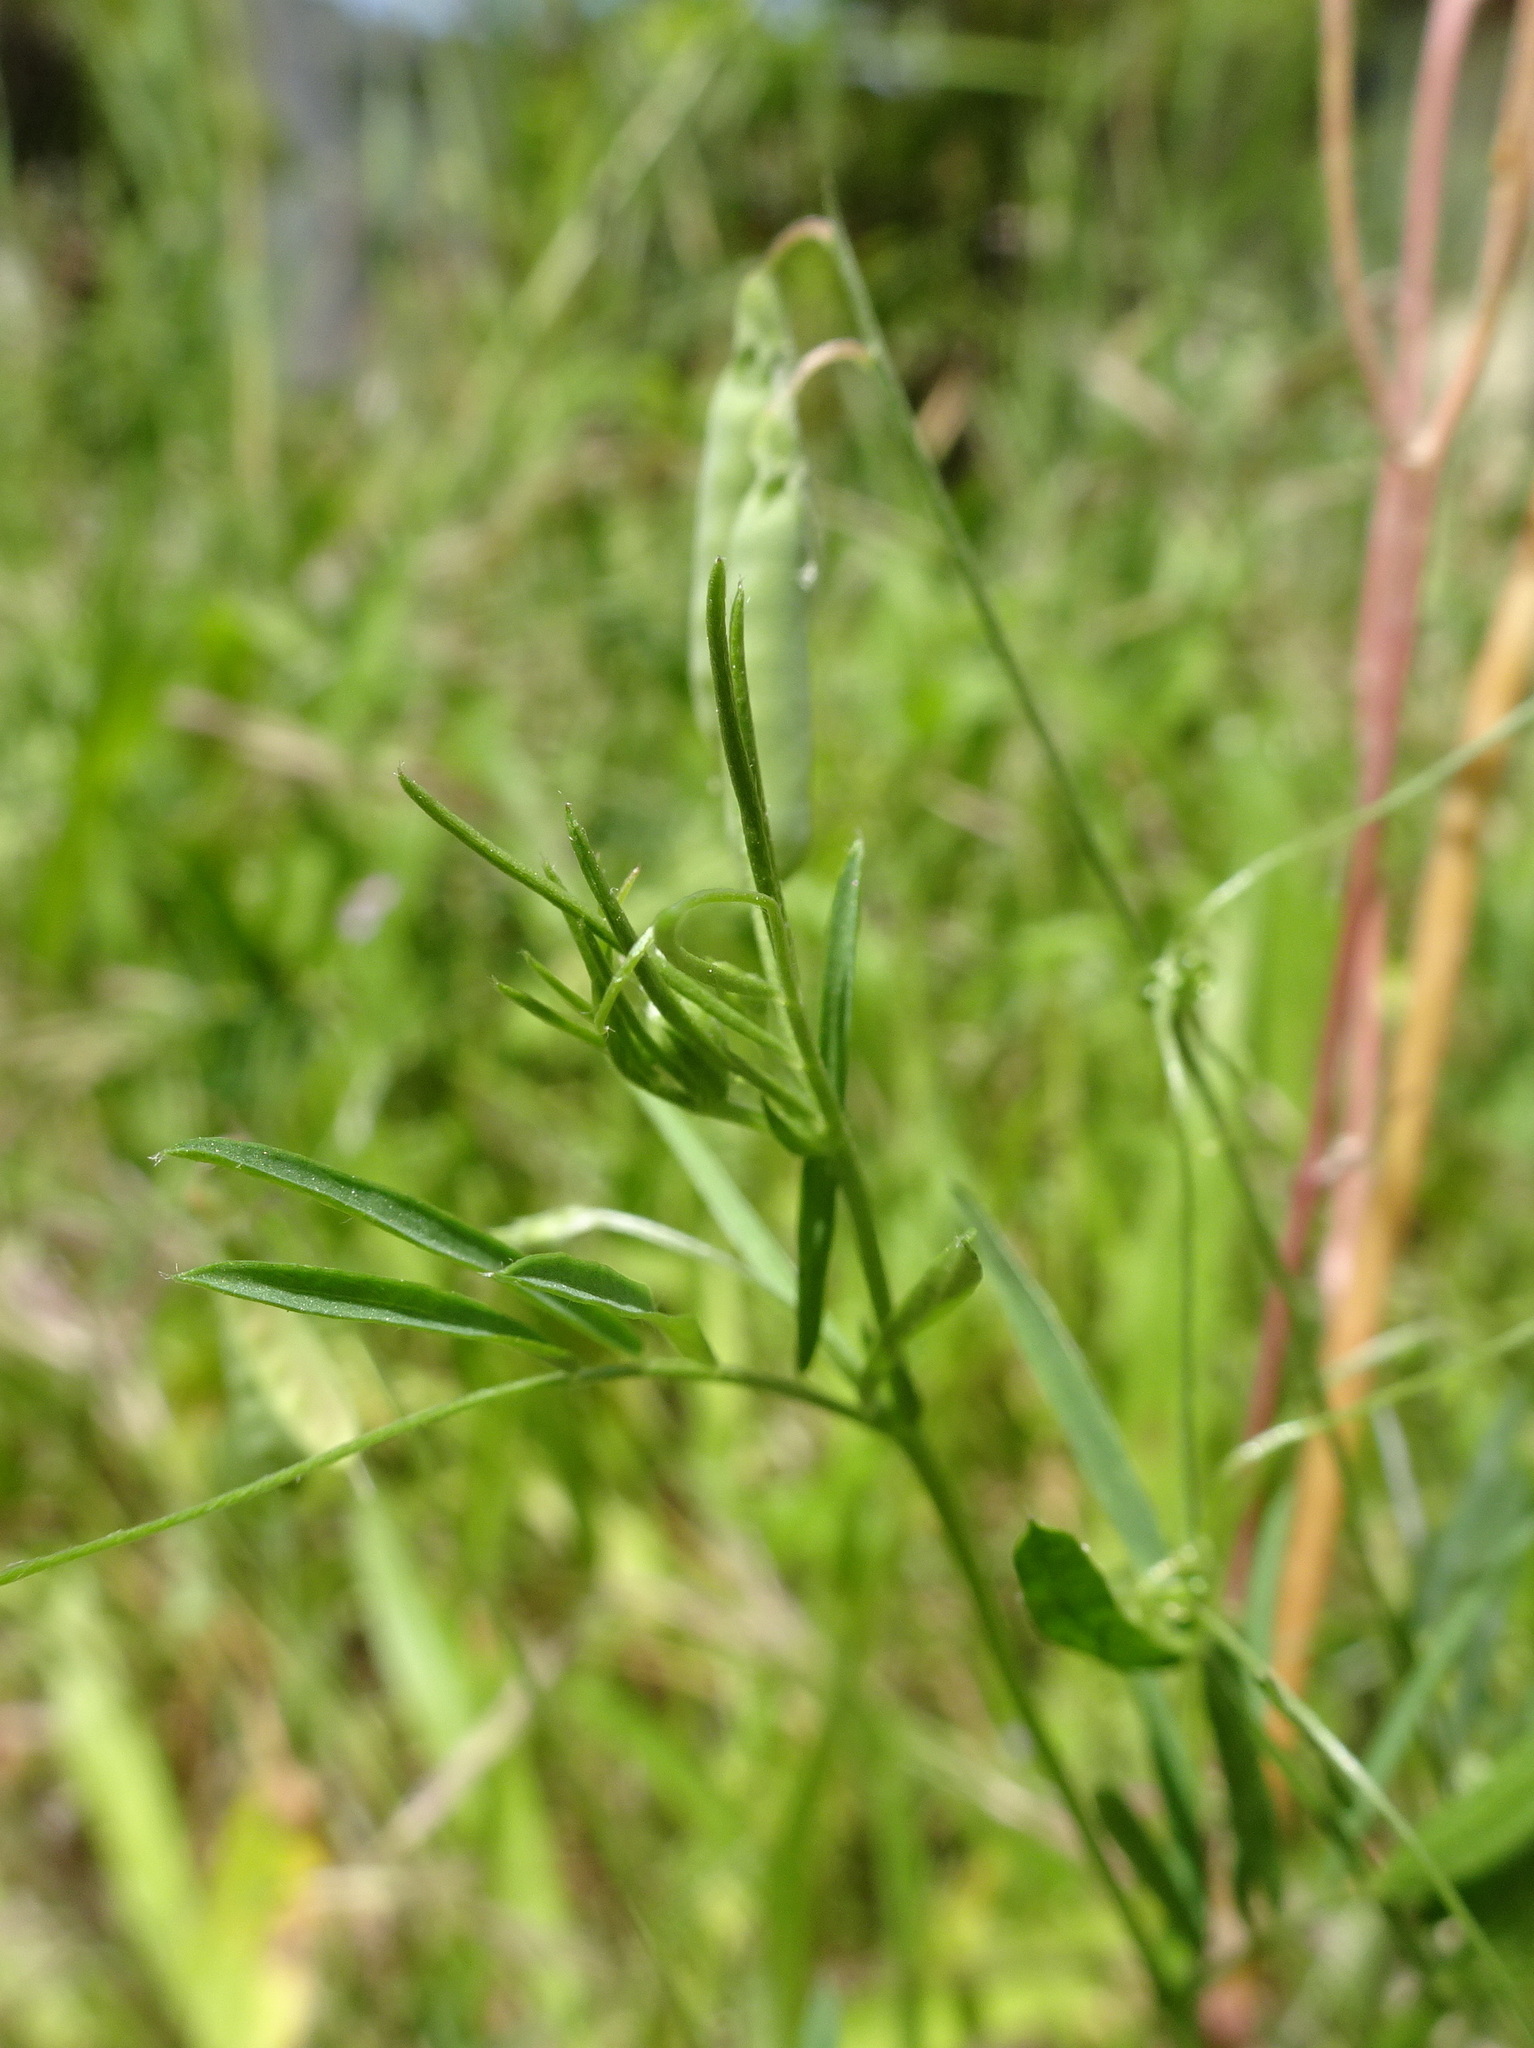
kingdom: Plantae
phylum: Tracheophyta
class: Magnoliopsida
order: Fabales
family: Fabaceae
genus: Vicia
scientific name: Vicia parviflora
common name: Slender tare
